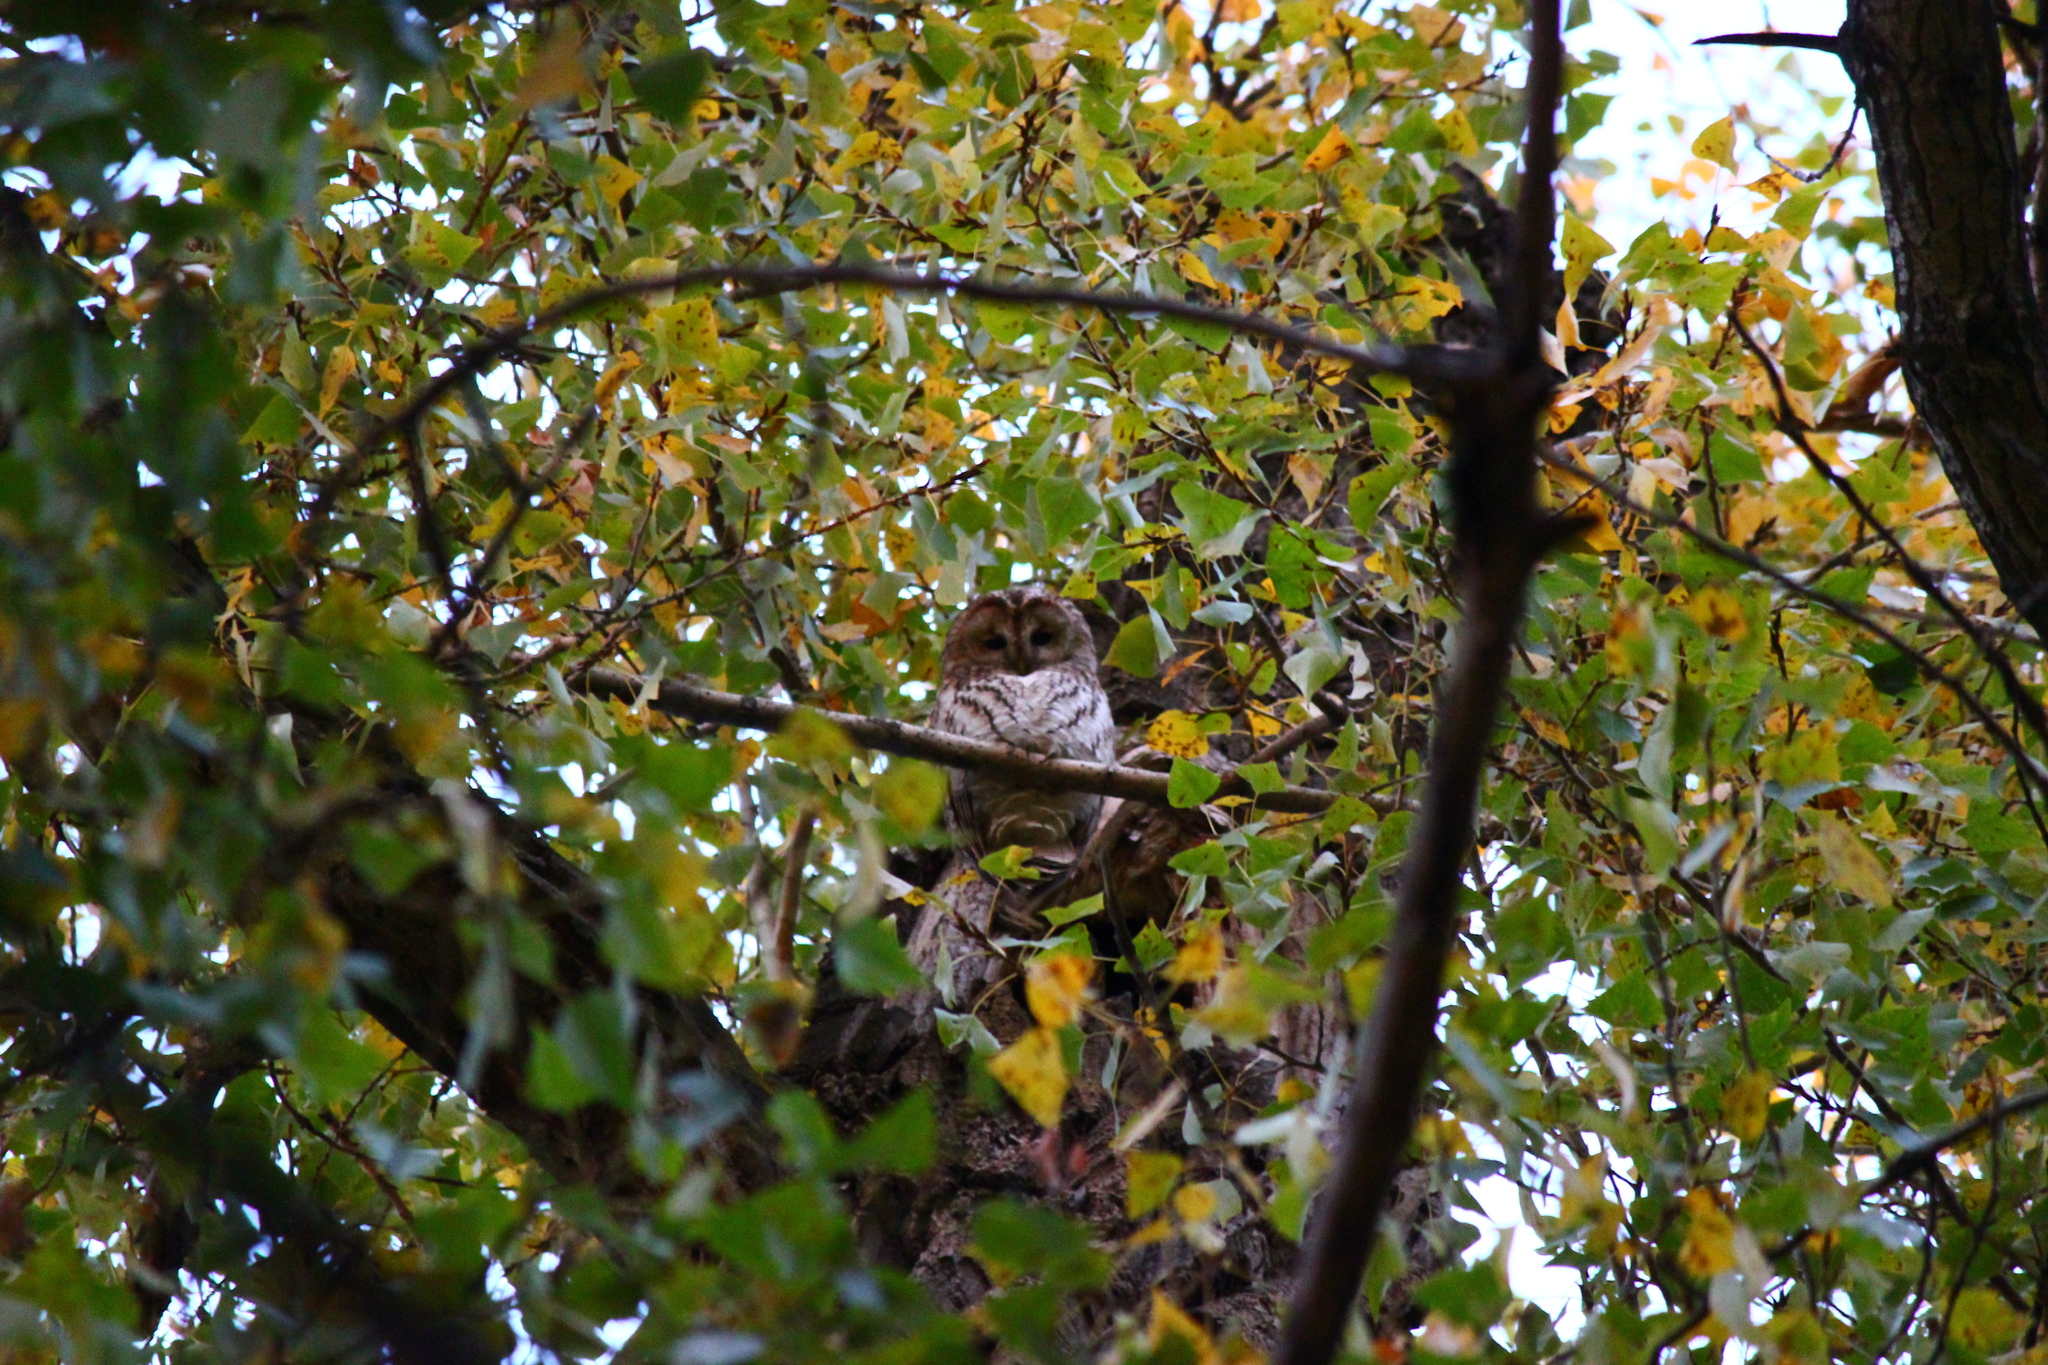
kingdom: Animalia
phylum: Chordata
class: Aves
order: Strigiformes
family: Strigidae
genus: Strix
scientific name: Strix aluco
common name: Tawny owl
